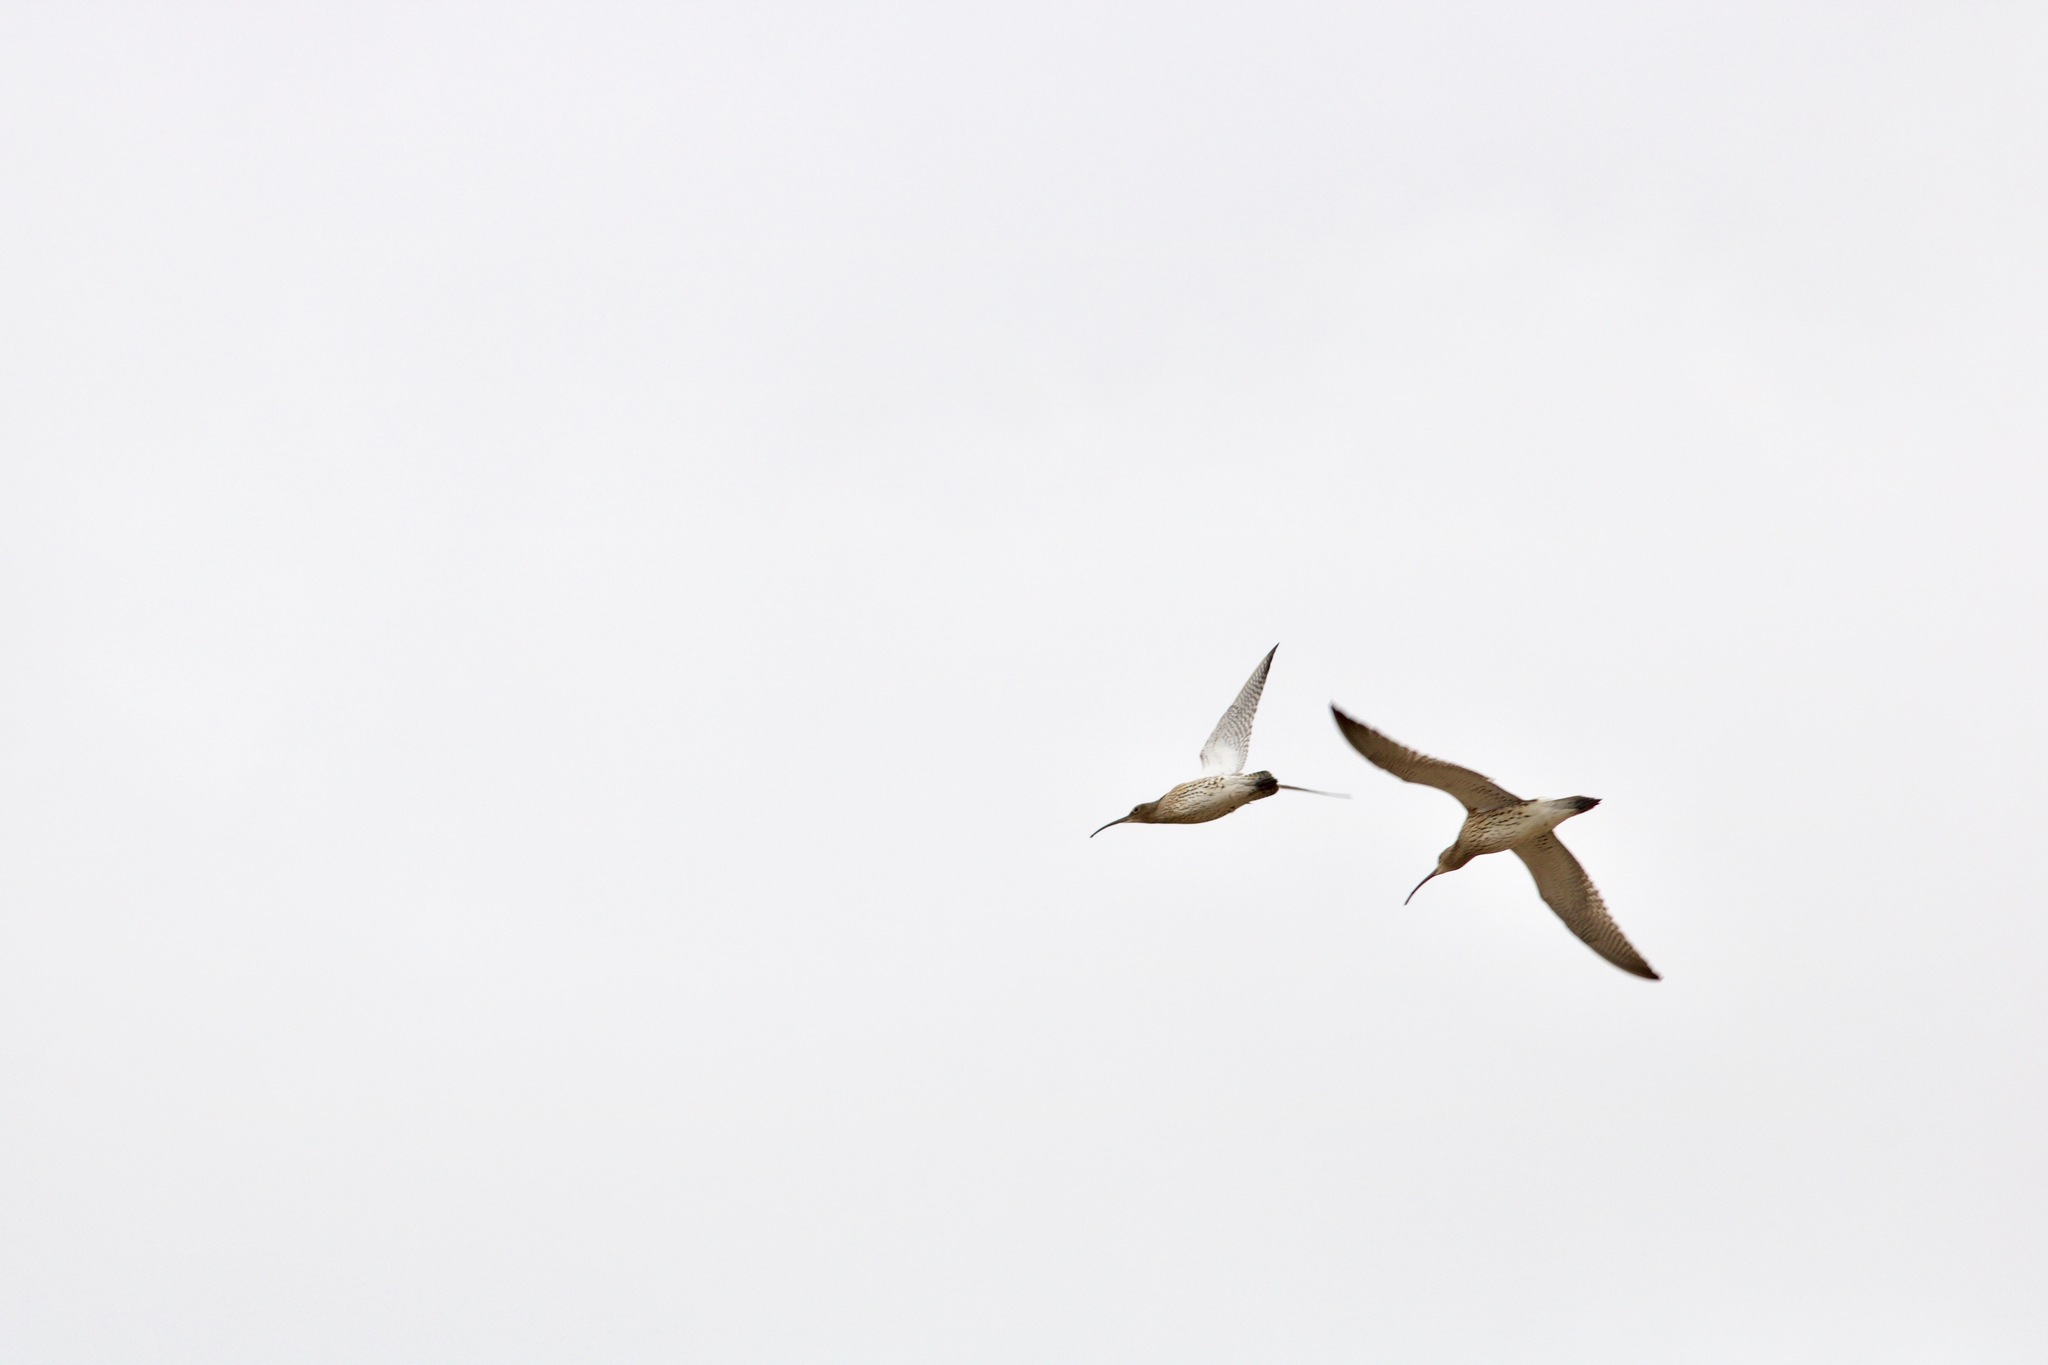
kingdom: Animalia
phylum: Chordata
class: Aves
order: Charadriiformes
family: Scolopacidae
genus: Numenius
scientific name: Numenius arquata
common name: Eurasian curlew
